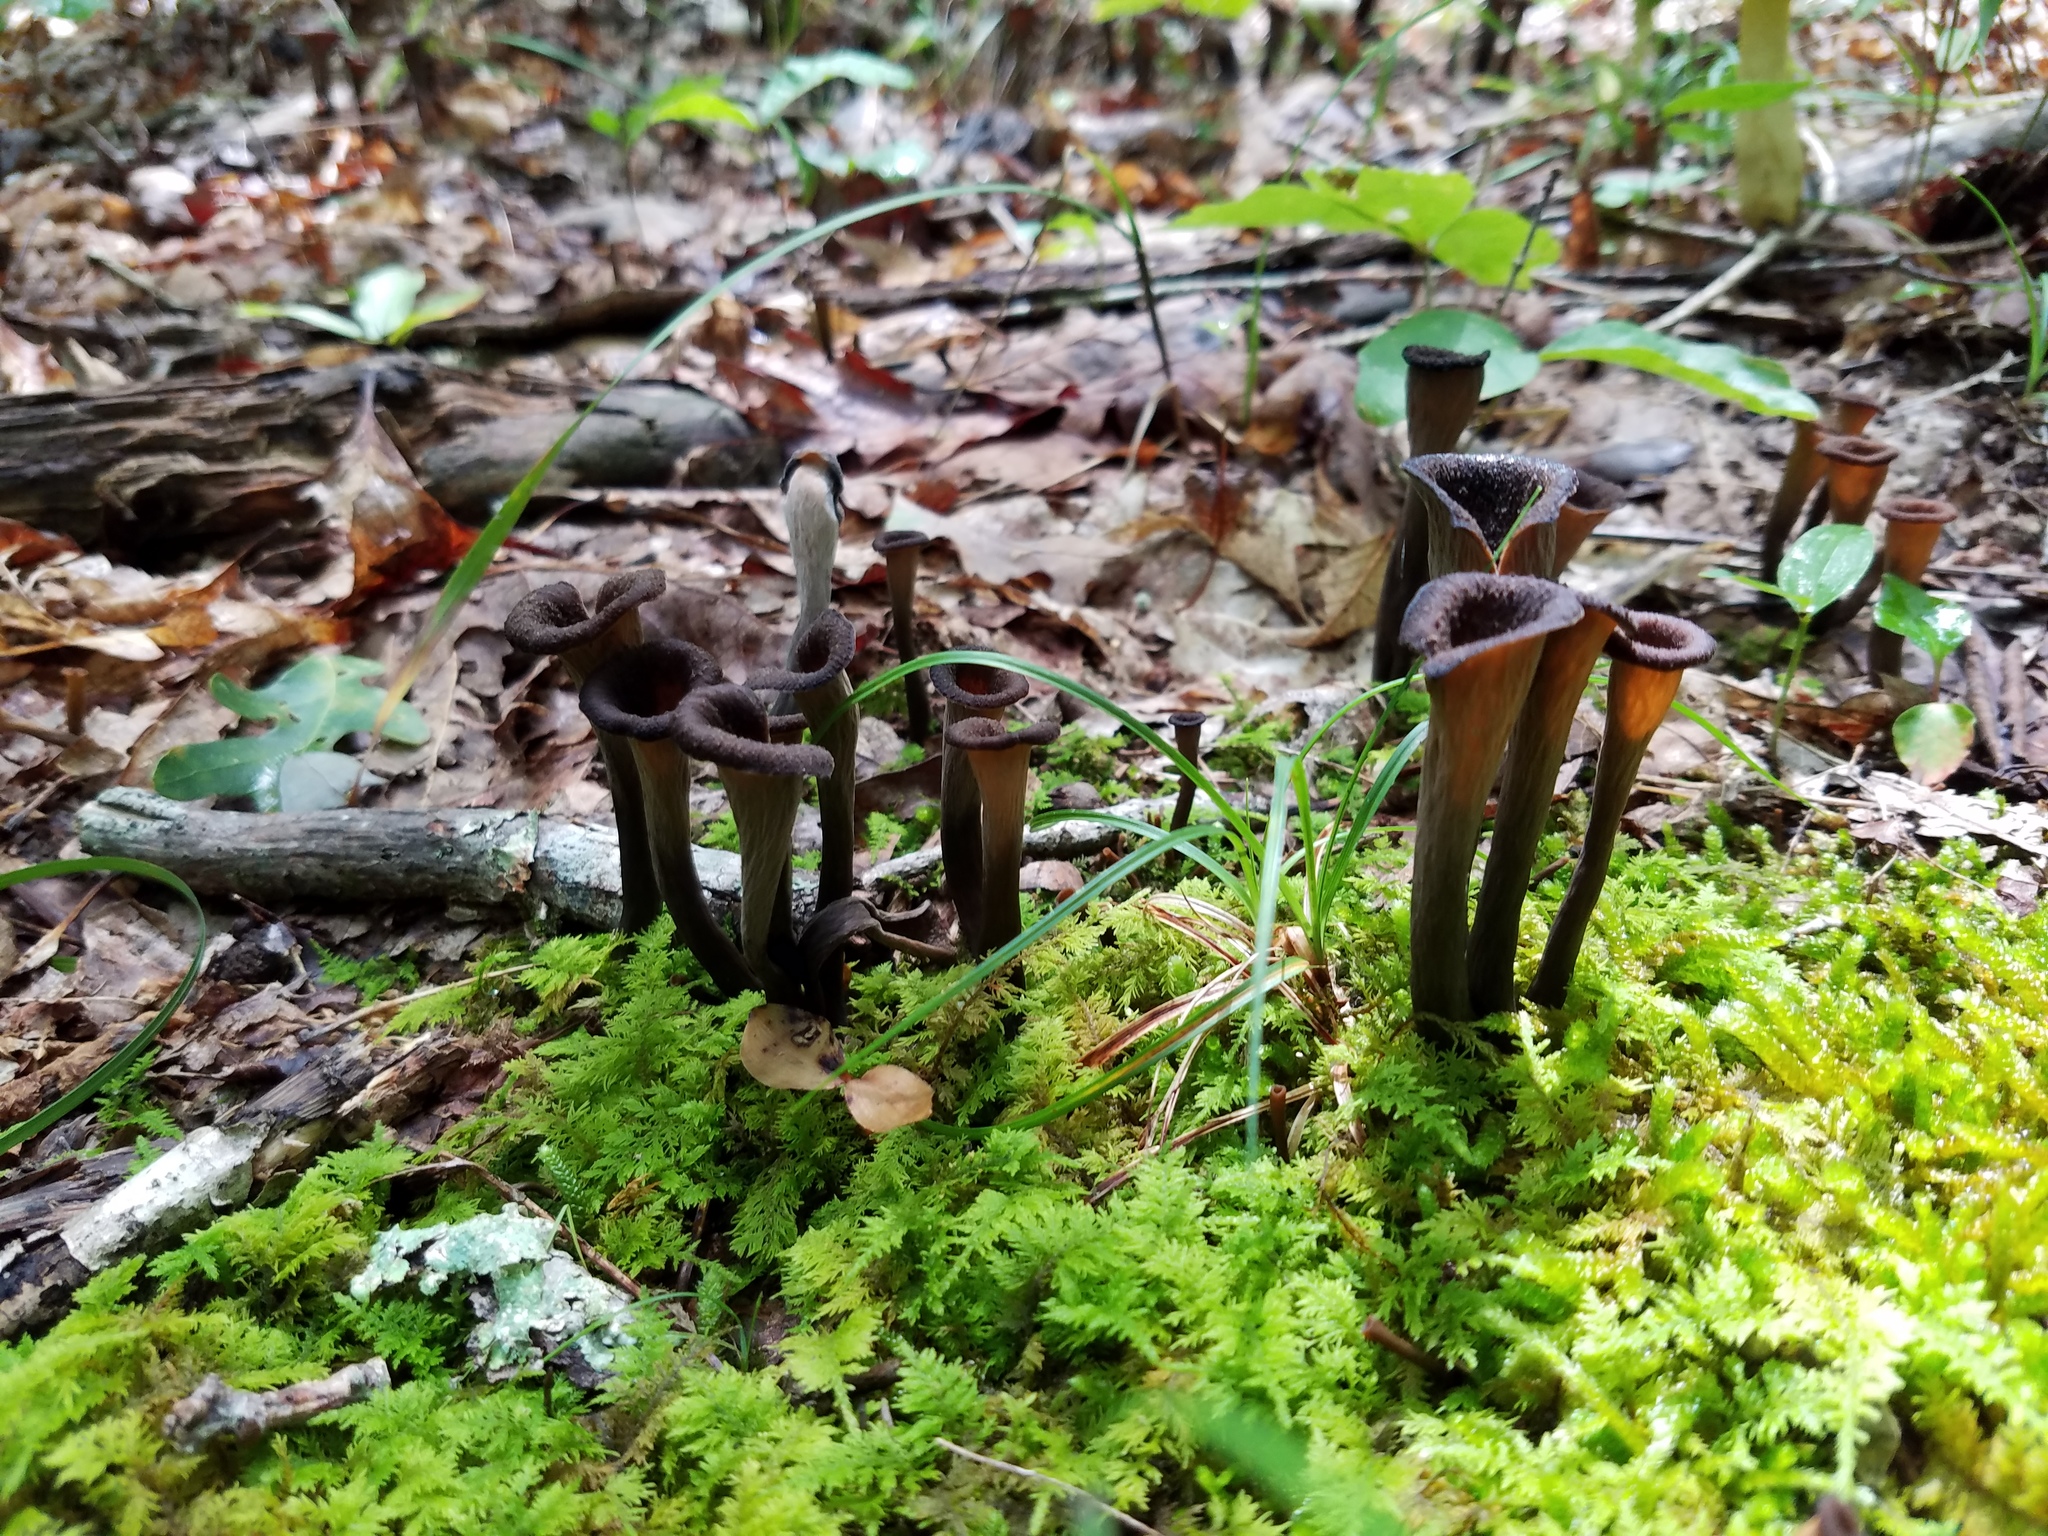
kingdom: Fungi
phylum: Basidiomycota
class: Agaricomycetes
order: Cantharellales
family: Hydnaceae
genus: Craterellus
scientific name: Craterellus cornucopioides
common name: Horn of plenty
